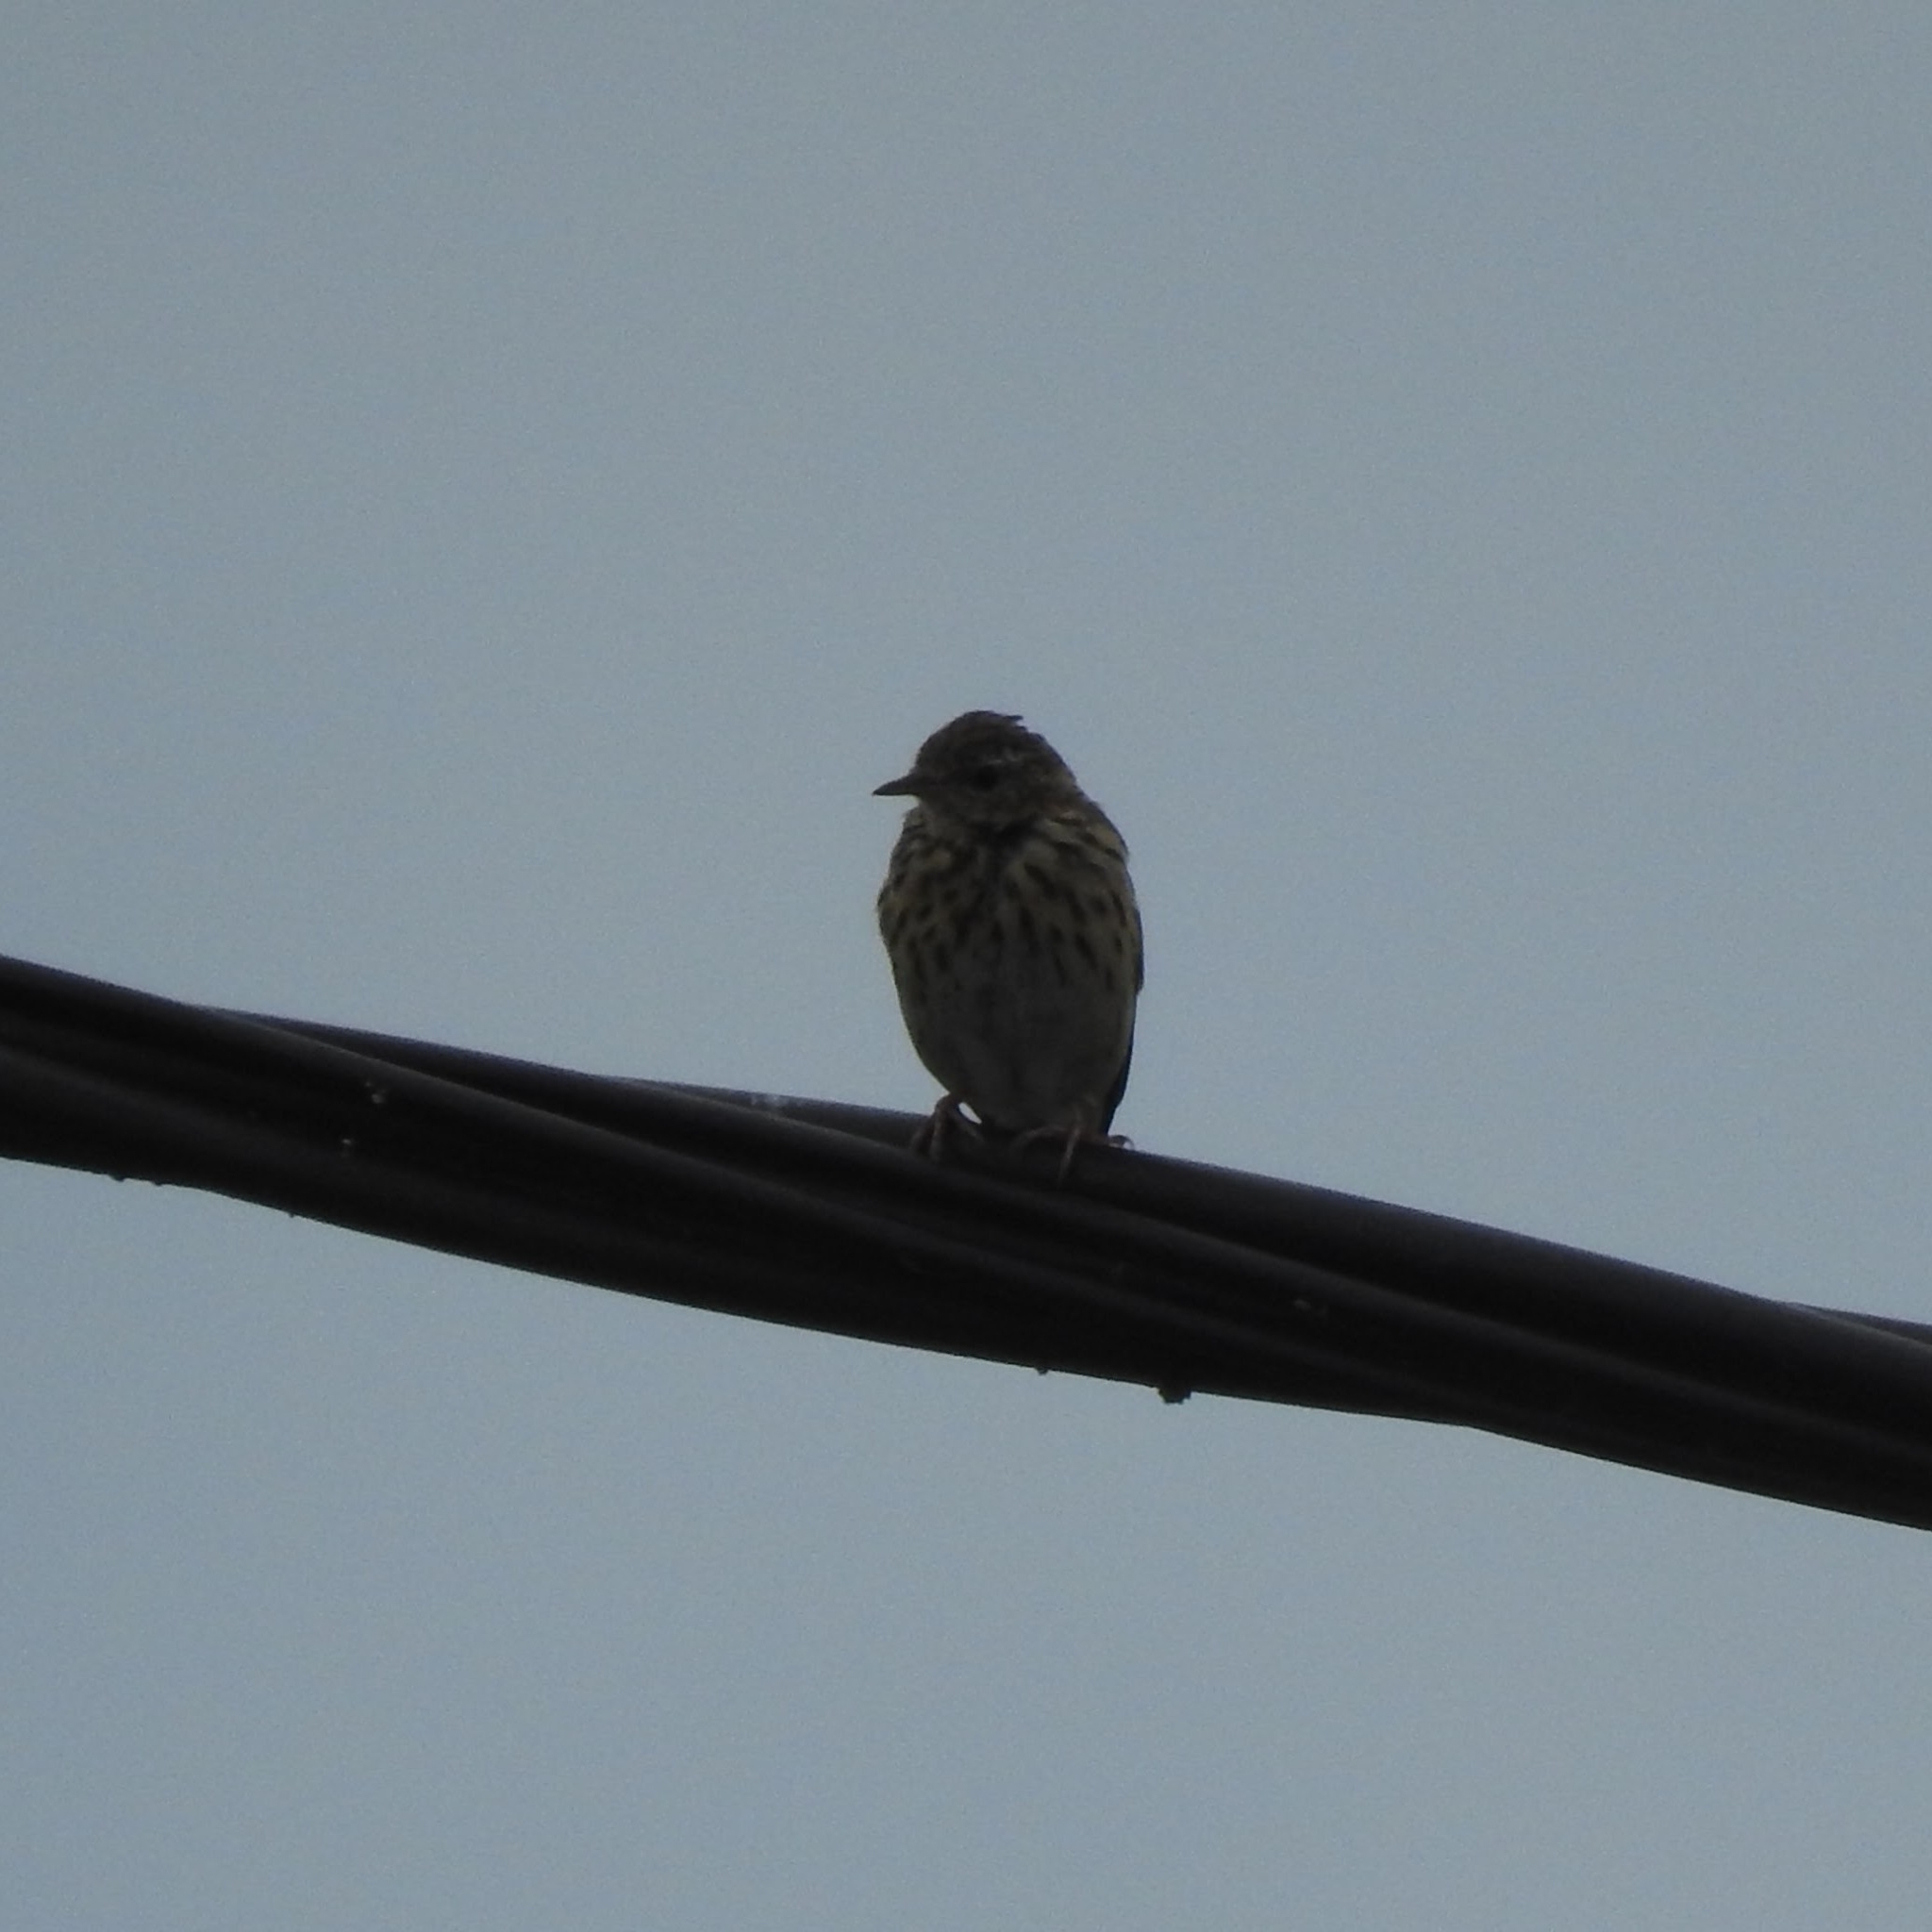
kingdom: Animalia
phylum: Chordata
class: Aves
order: Passeriformes
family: Motacillidae
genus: Anthus
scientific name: Anthus pratensis
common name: Meadow pipit
